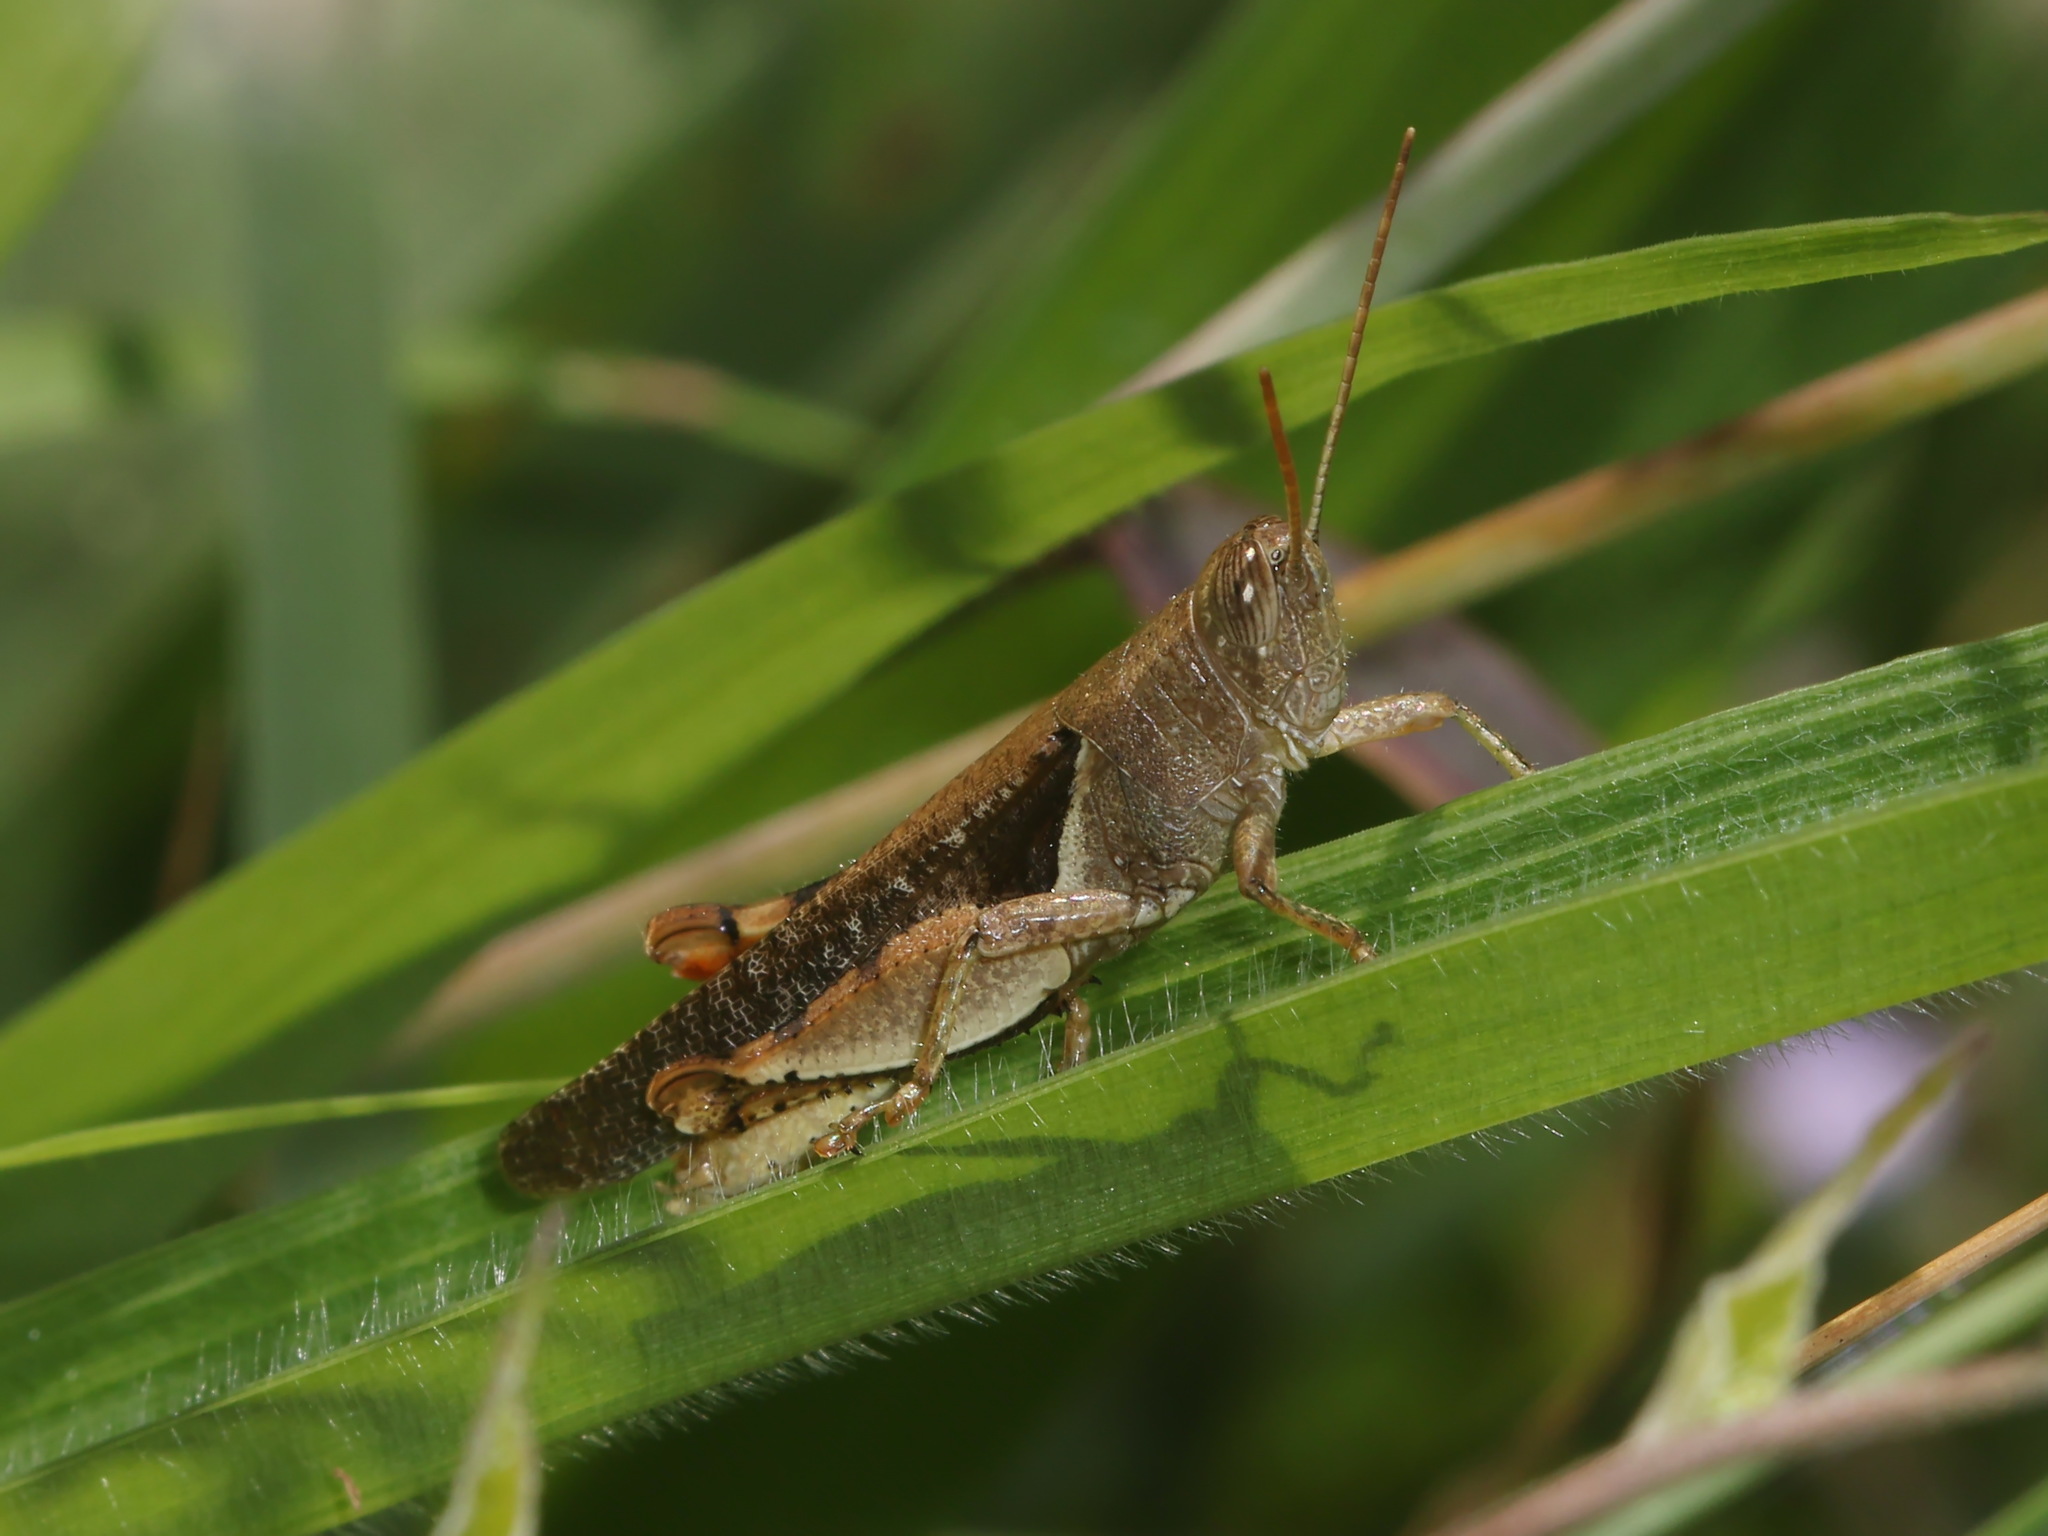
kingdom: Animalia
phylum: Arthropoda
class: Insecta
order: Orthoptera
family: Acrididae
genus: Diabolocatantops
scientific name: Diabolocatantops pinguis
